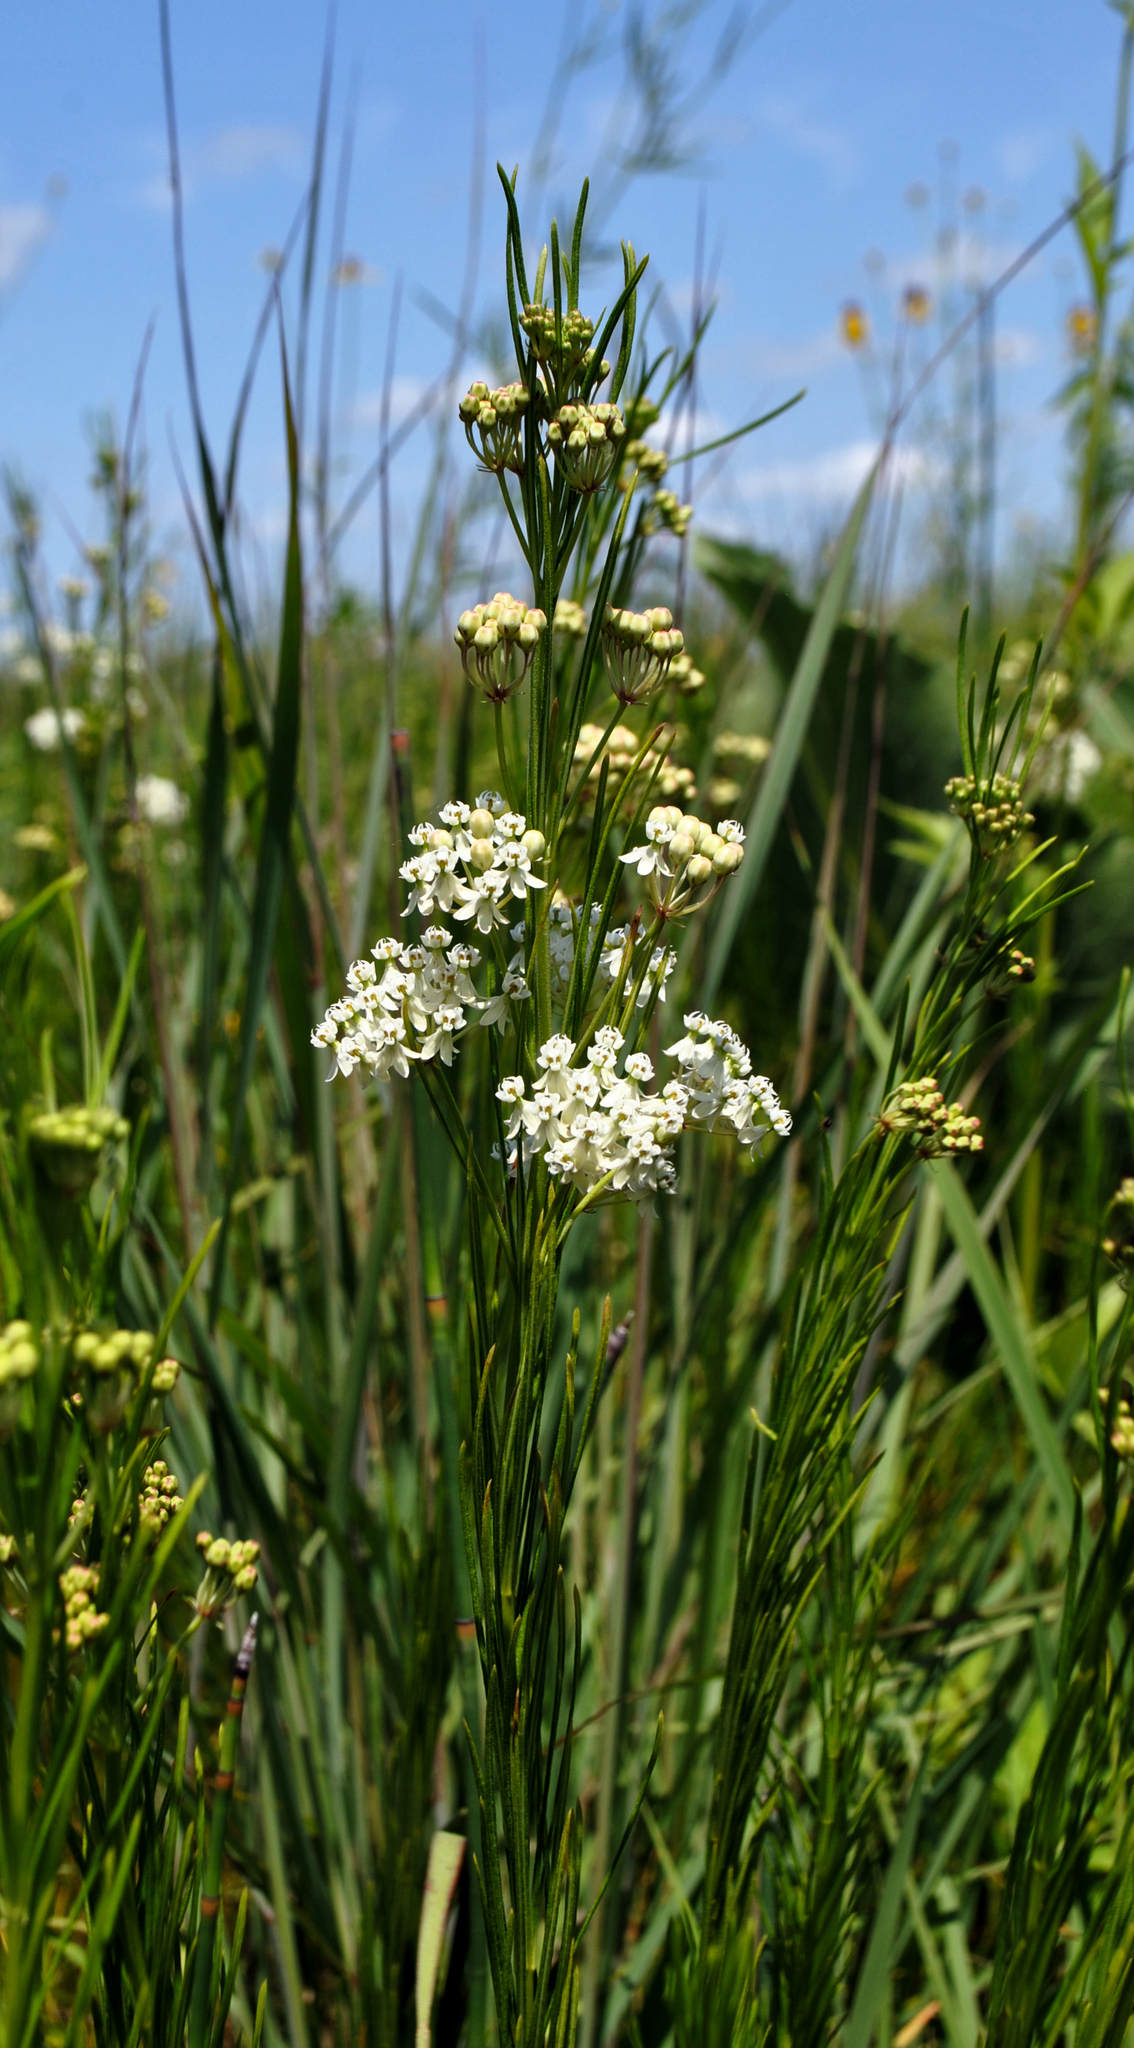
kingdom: Plantae
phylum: Tracheophyta
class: Magnoliopsida
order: Gentianales
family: Apocynaceae
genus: Asclepias
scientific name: Asclepias verticillata
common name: Eastern whorled milkweed
